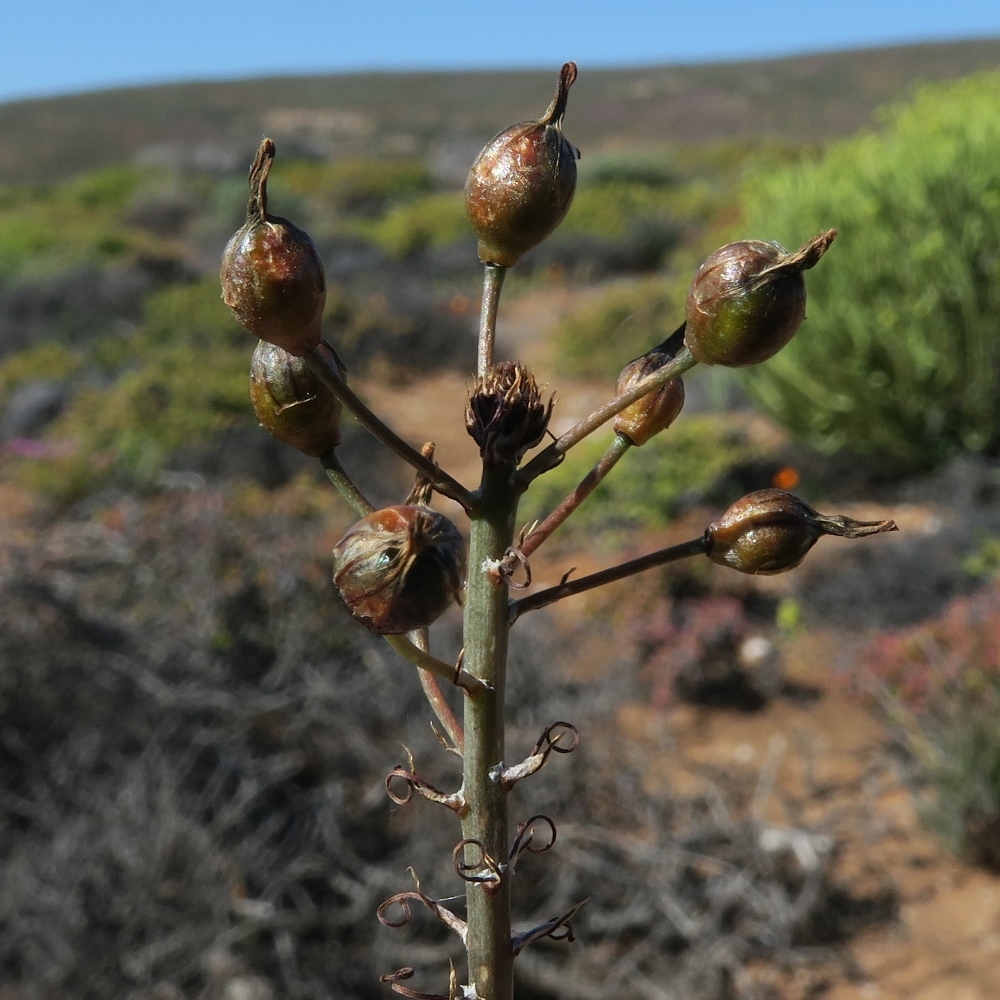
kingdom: Plantae
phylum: Tracheophyta
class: Liliopsida
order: Asparagales
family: Asphodelaceae
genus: Bulbine
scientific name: Bulbine frutescens
